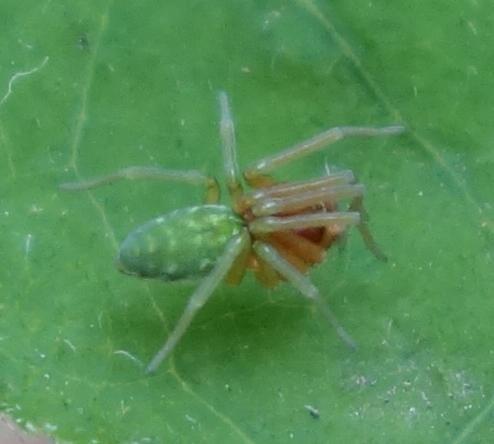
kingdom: Animalia
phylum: Arthropoda
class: Arachnida
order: Araneae
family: Dictynidae
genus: Nigma
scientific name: Nigma walckenaeri
